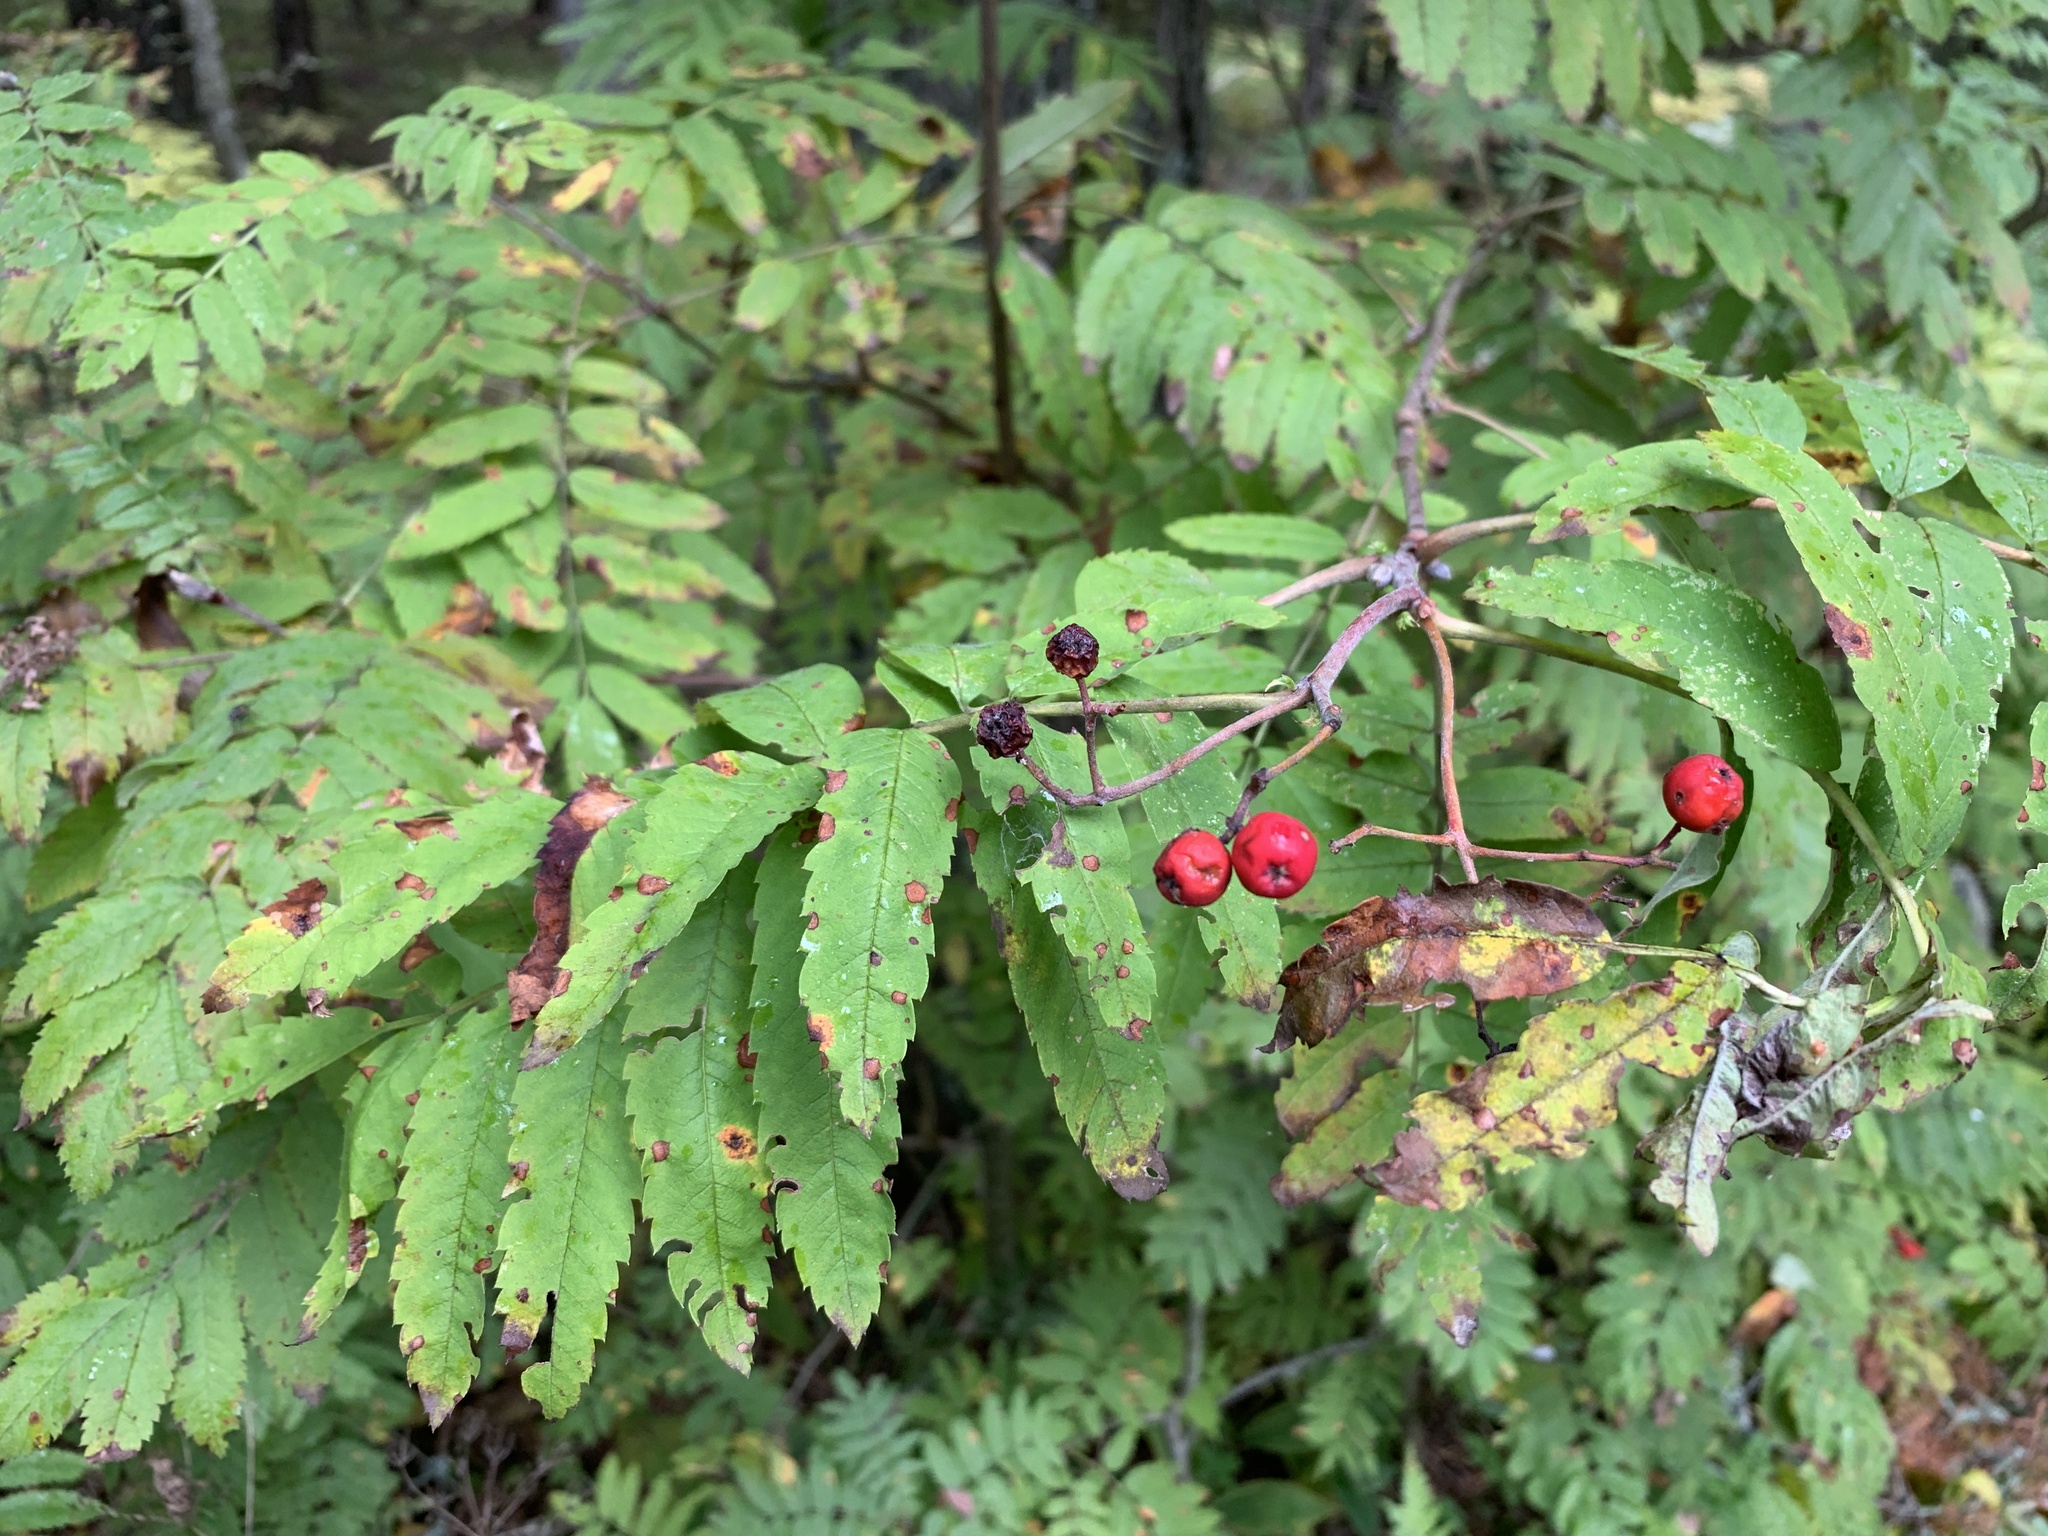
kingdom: Plantae
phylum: Tracheophyta
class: Magnoliopsida
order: Rosales
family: Rosaceae
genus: Sorbus
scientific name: Sorbus aucuparia
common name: Rowan
